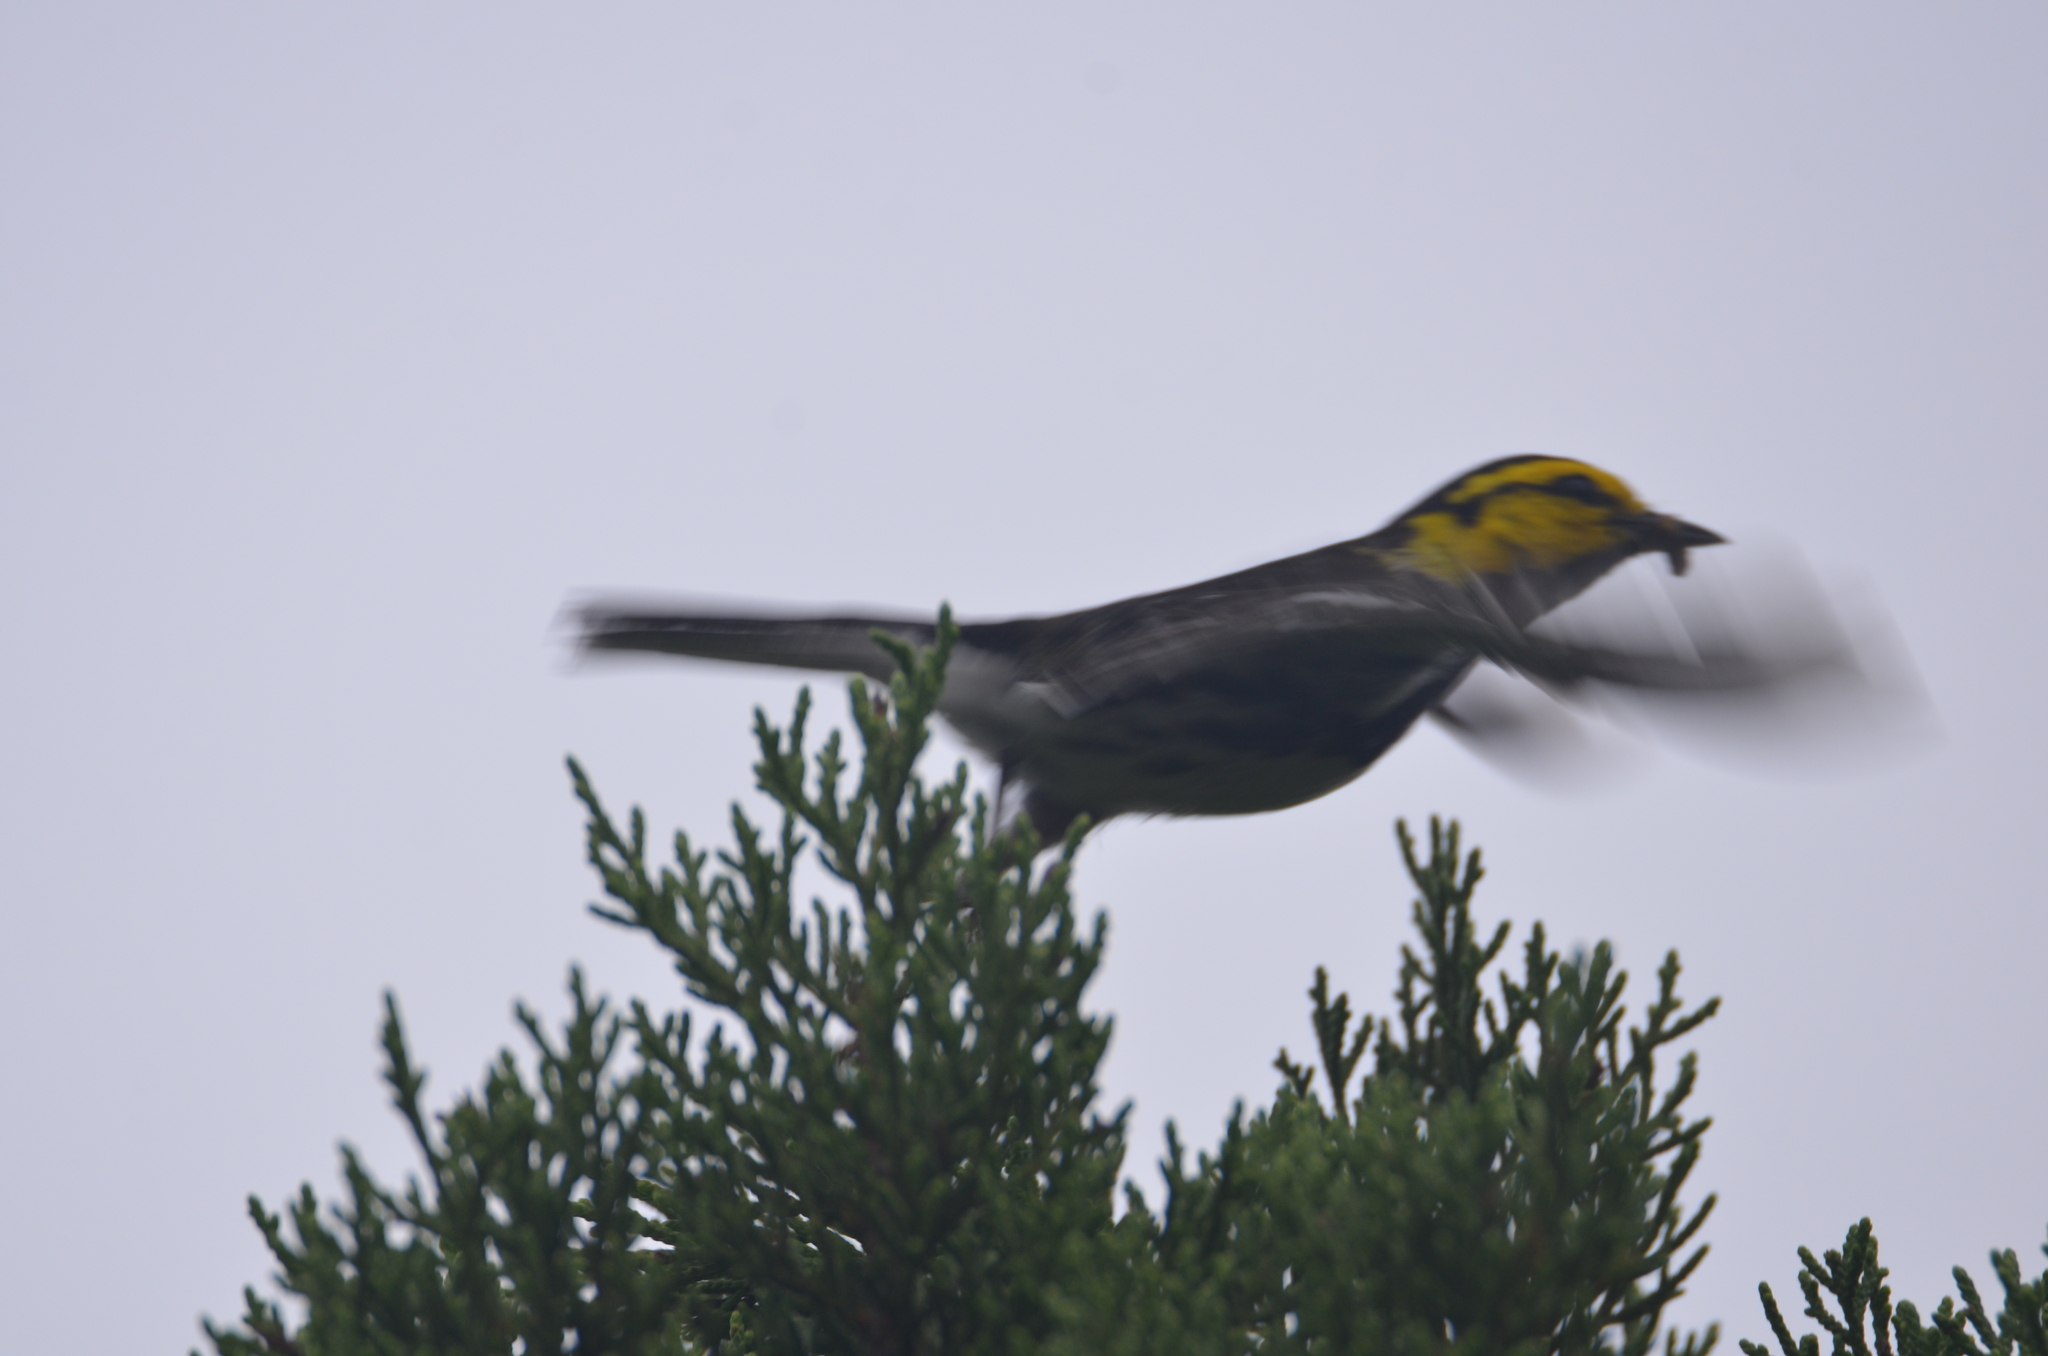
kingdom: Animalia
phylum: Chordata
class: Aves
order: Passeriformes
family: Parulidae
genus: Setophaga
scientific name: Setophaga chrysoparia
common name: Golden-cheeked warbler
